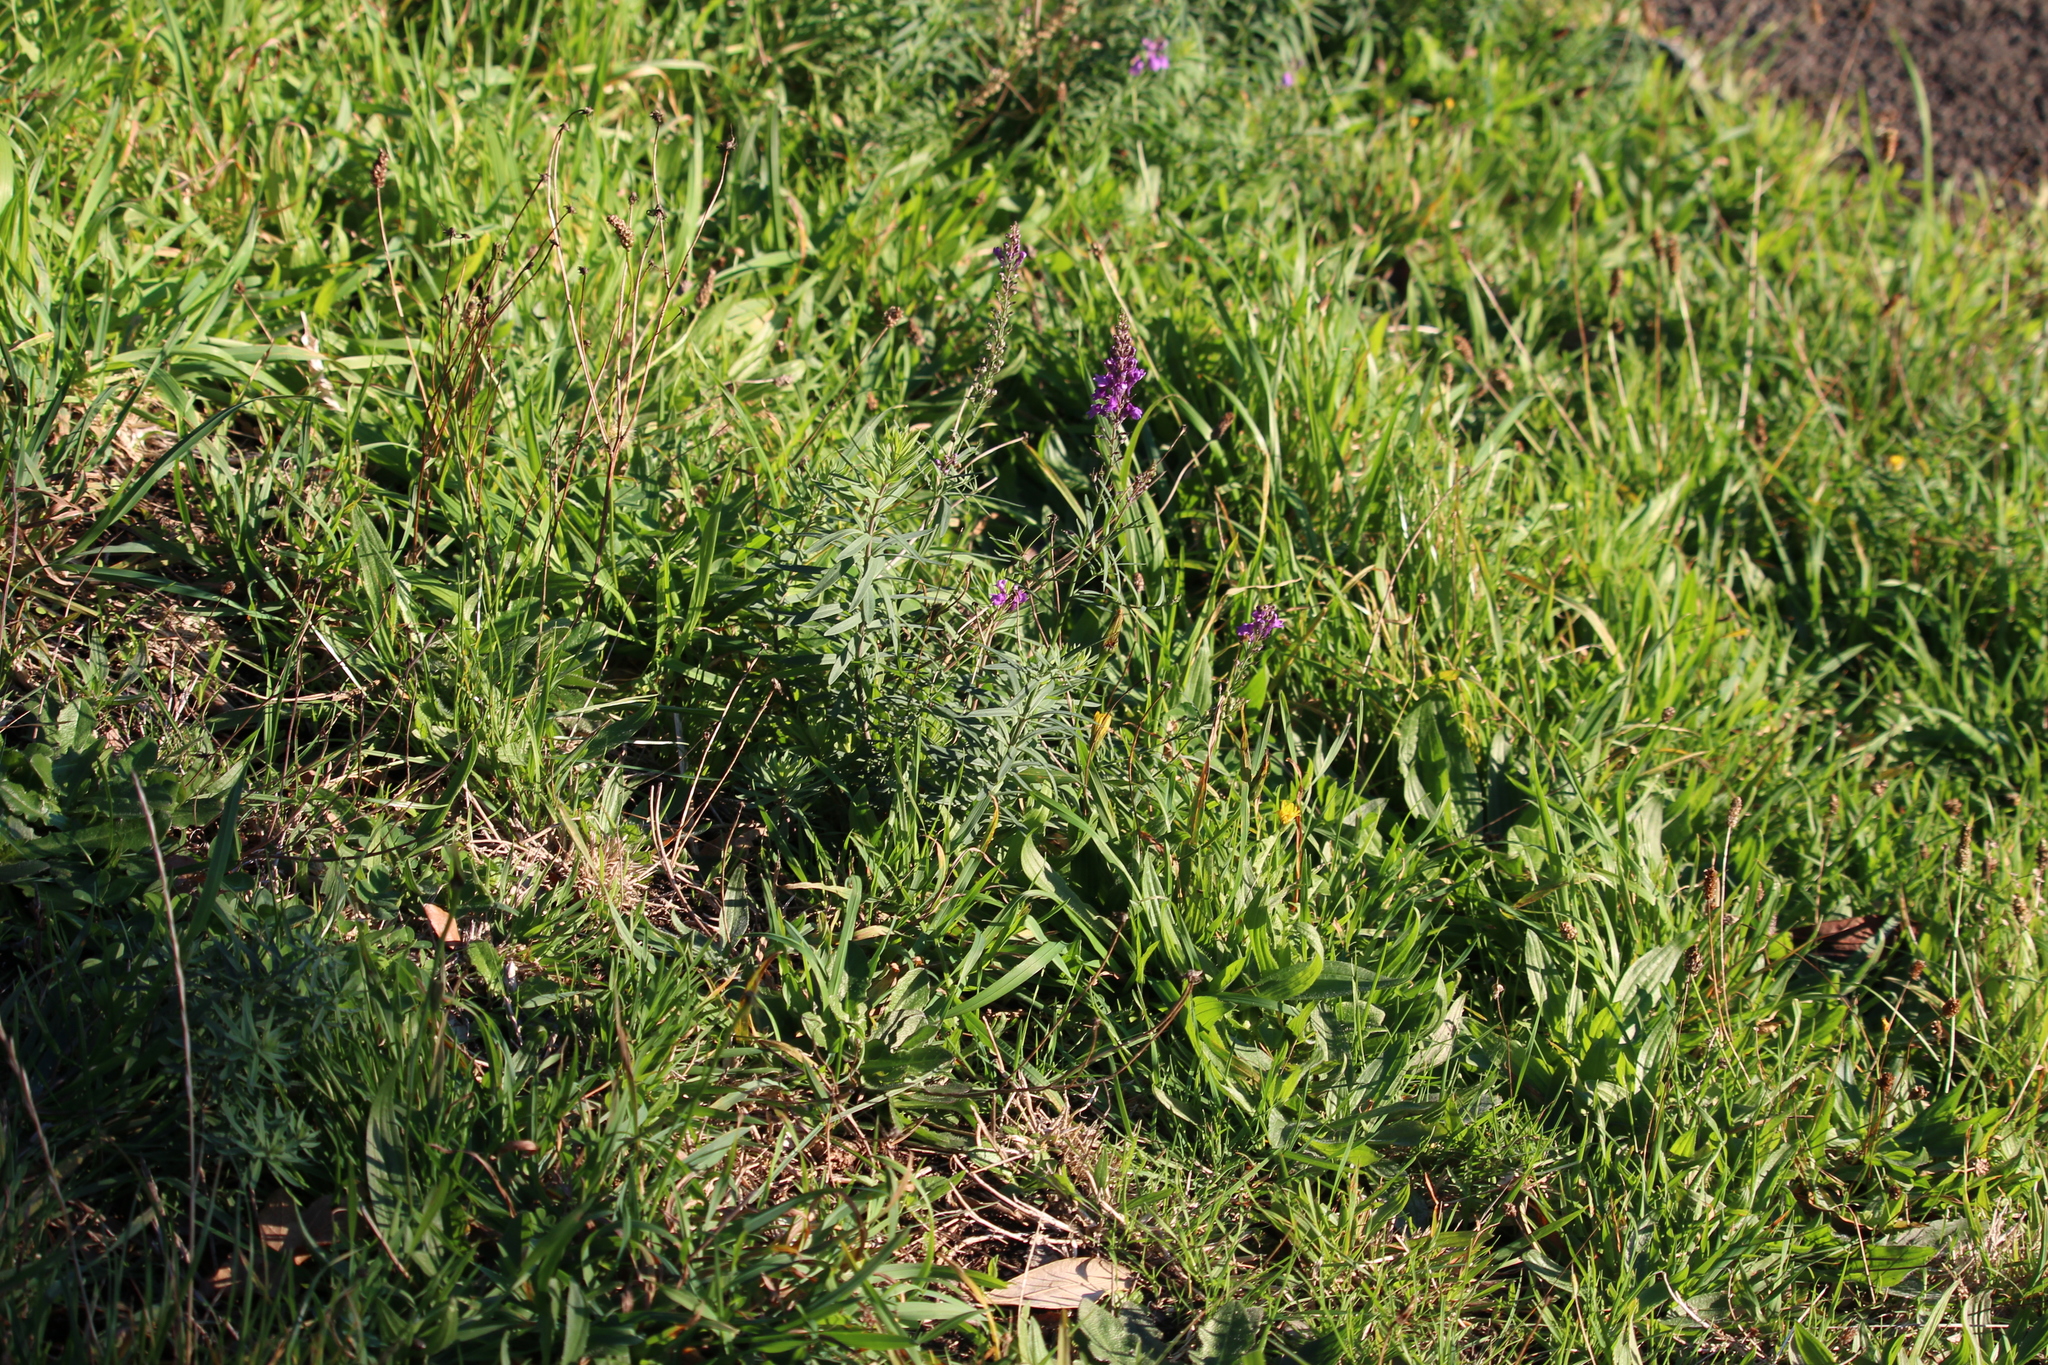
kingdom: Plantae
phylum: Tracheophyta
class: Magnoliopsida
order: Lamiales
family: Plantaginaceae
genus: Linaria
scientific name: Linaria purpurea
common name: Purple toadflax
